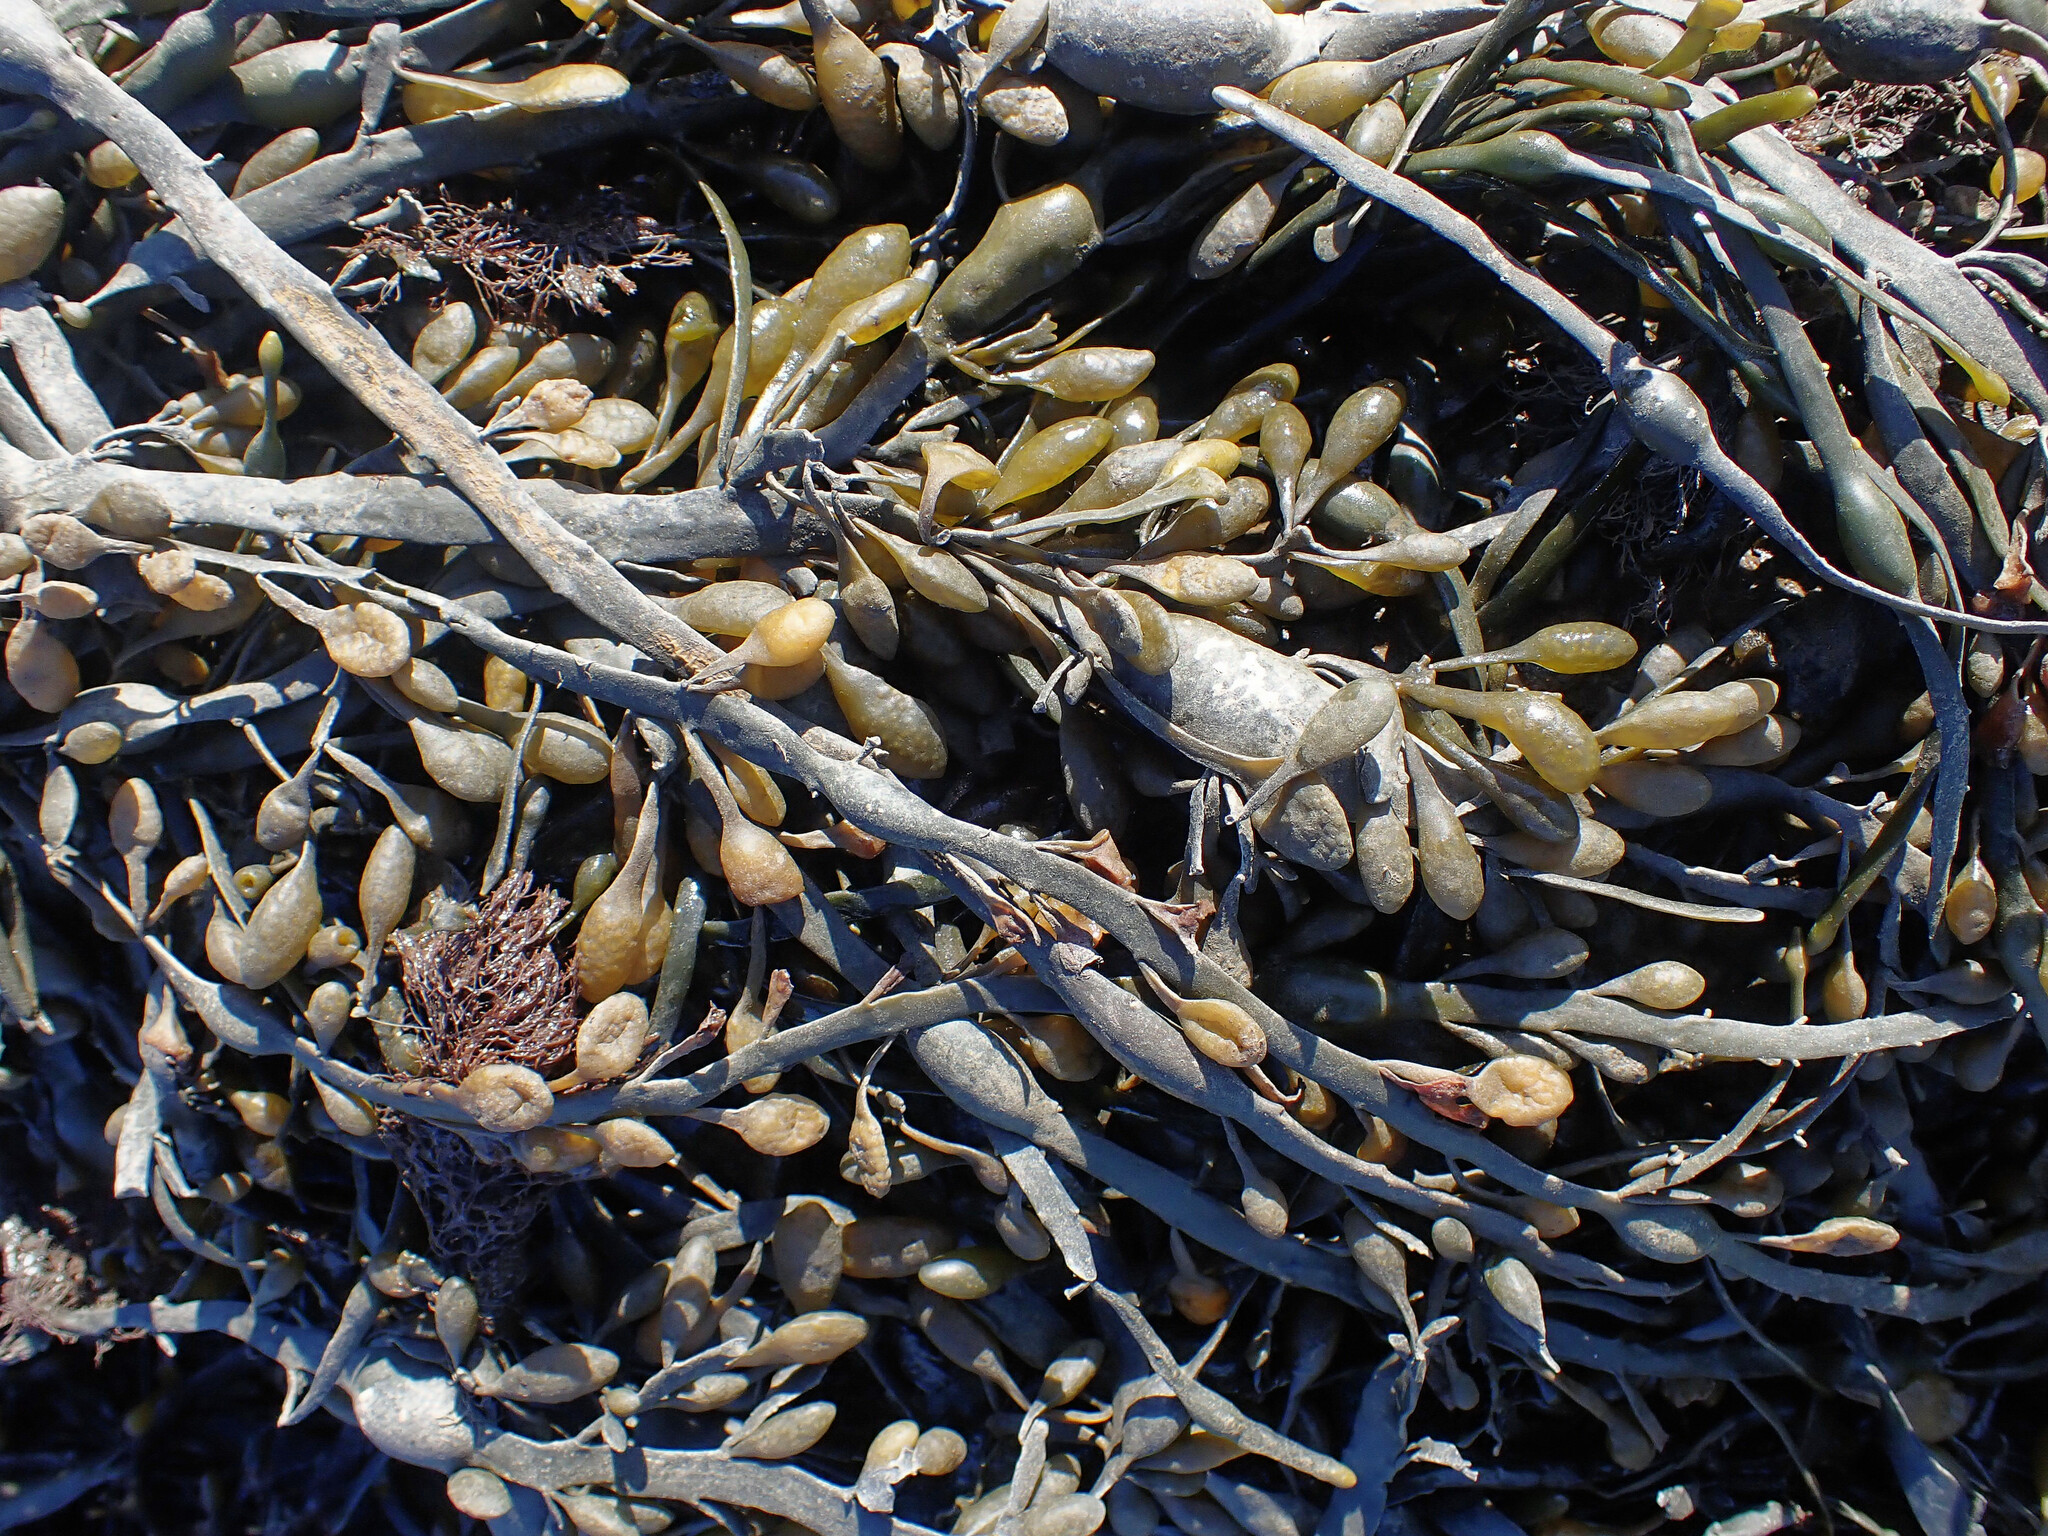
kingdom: Chromista
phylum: Ochrophyta
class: Phaeophyceae
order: Fucales
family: Fucaceae
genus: Ascophyllum
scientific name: Ascophyllum nodosum
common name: Knotted wrack
